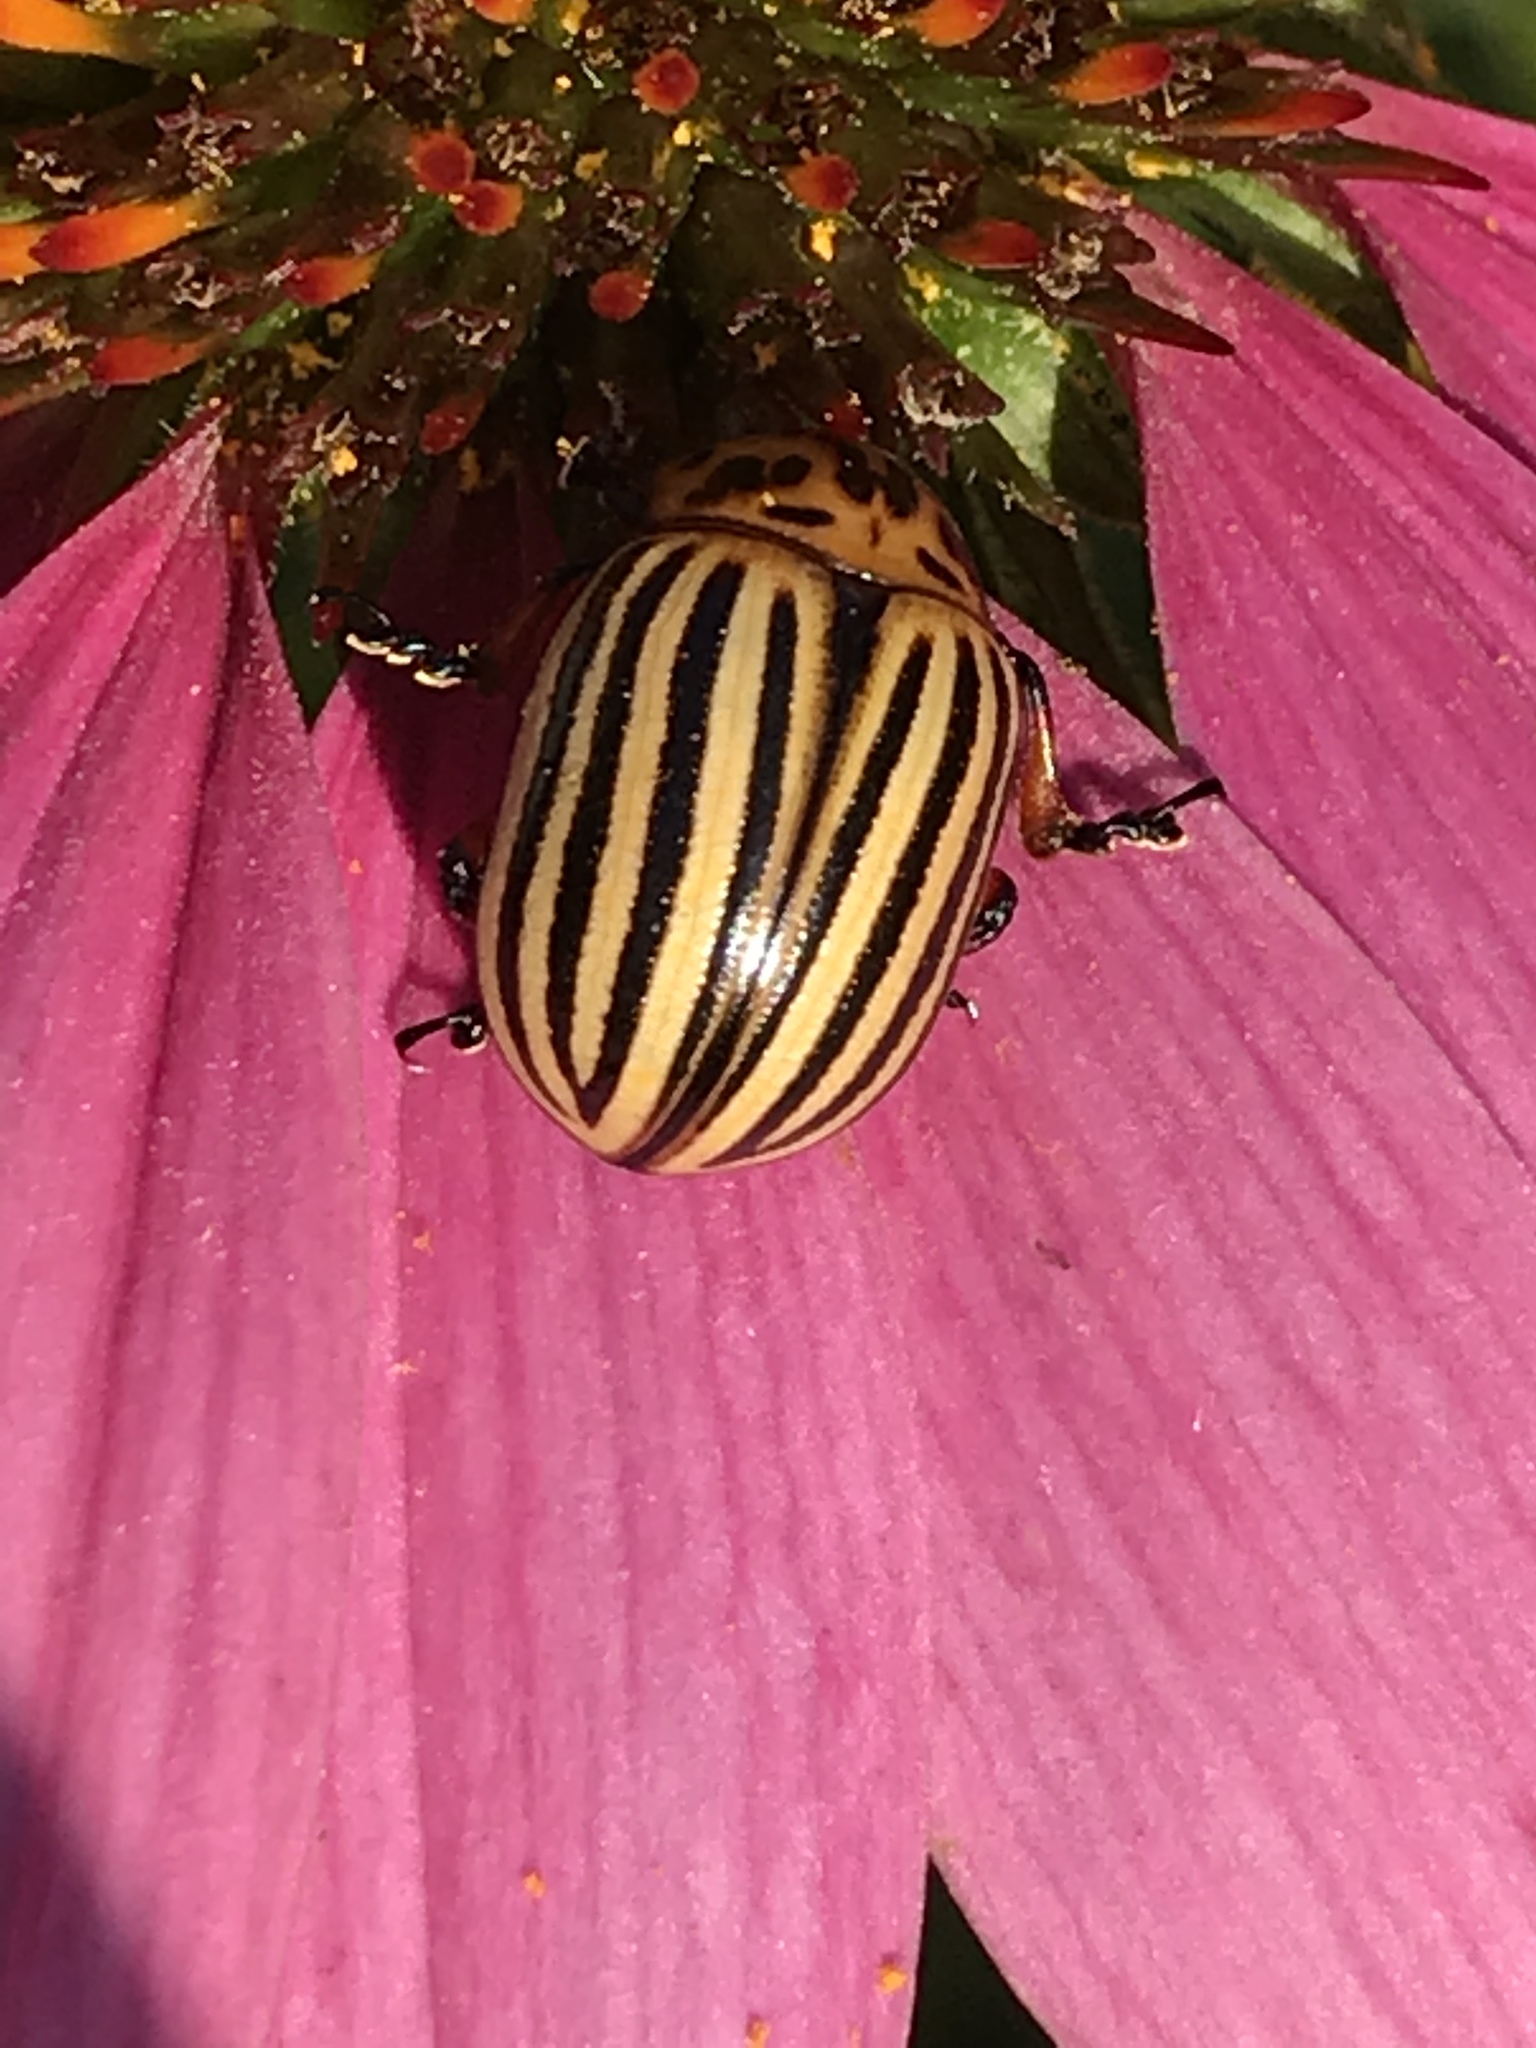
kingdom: Animalia
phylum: Arthropoda
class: Insecta
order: Coleoptera
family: Chrysomelidae
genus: Leptinotarsa
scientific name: Leptinotarsa decemlineata
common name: Colorado potato beetle
